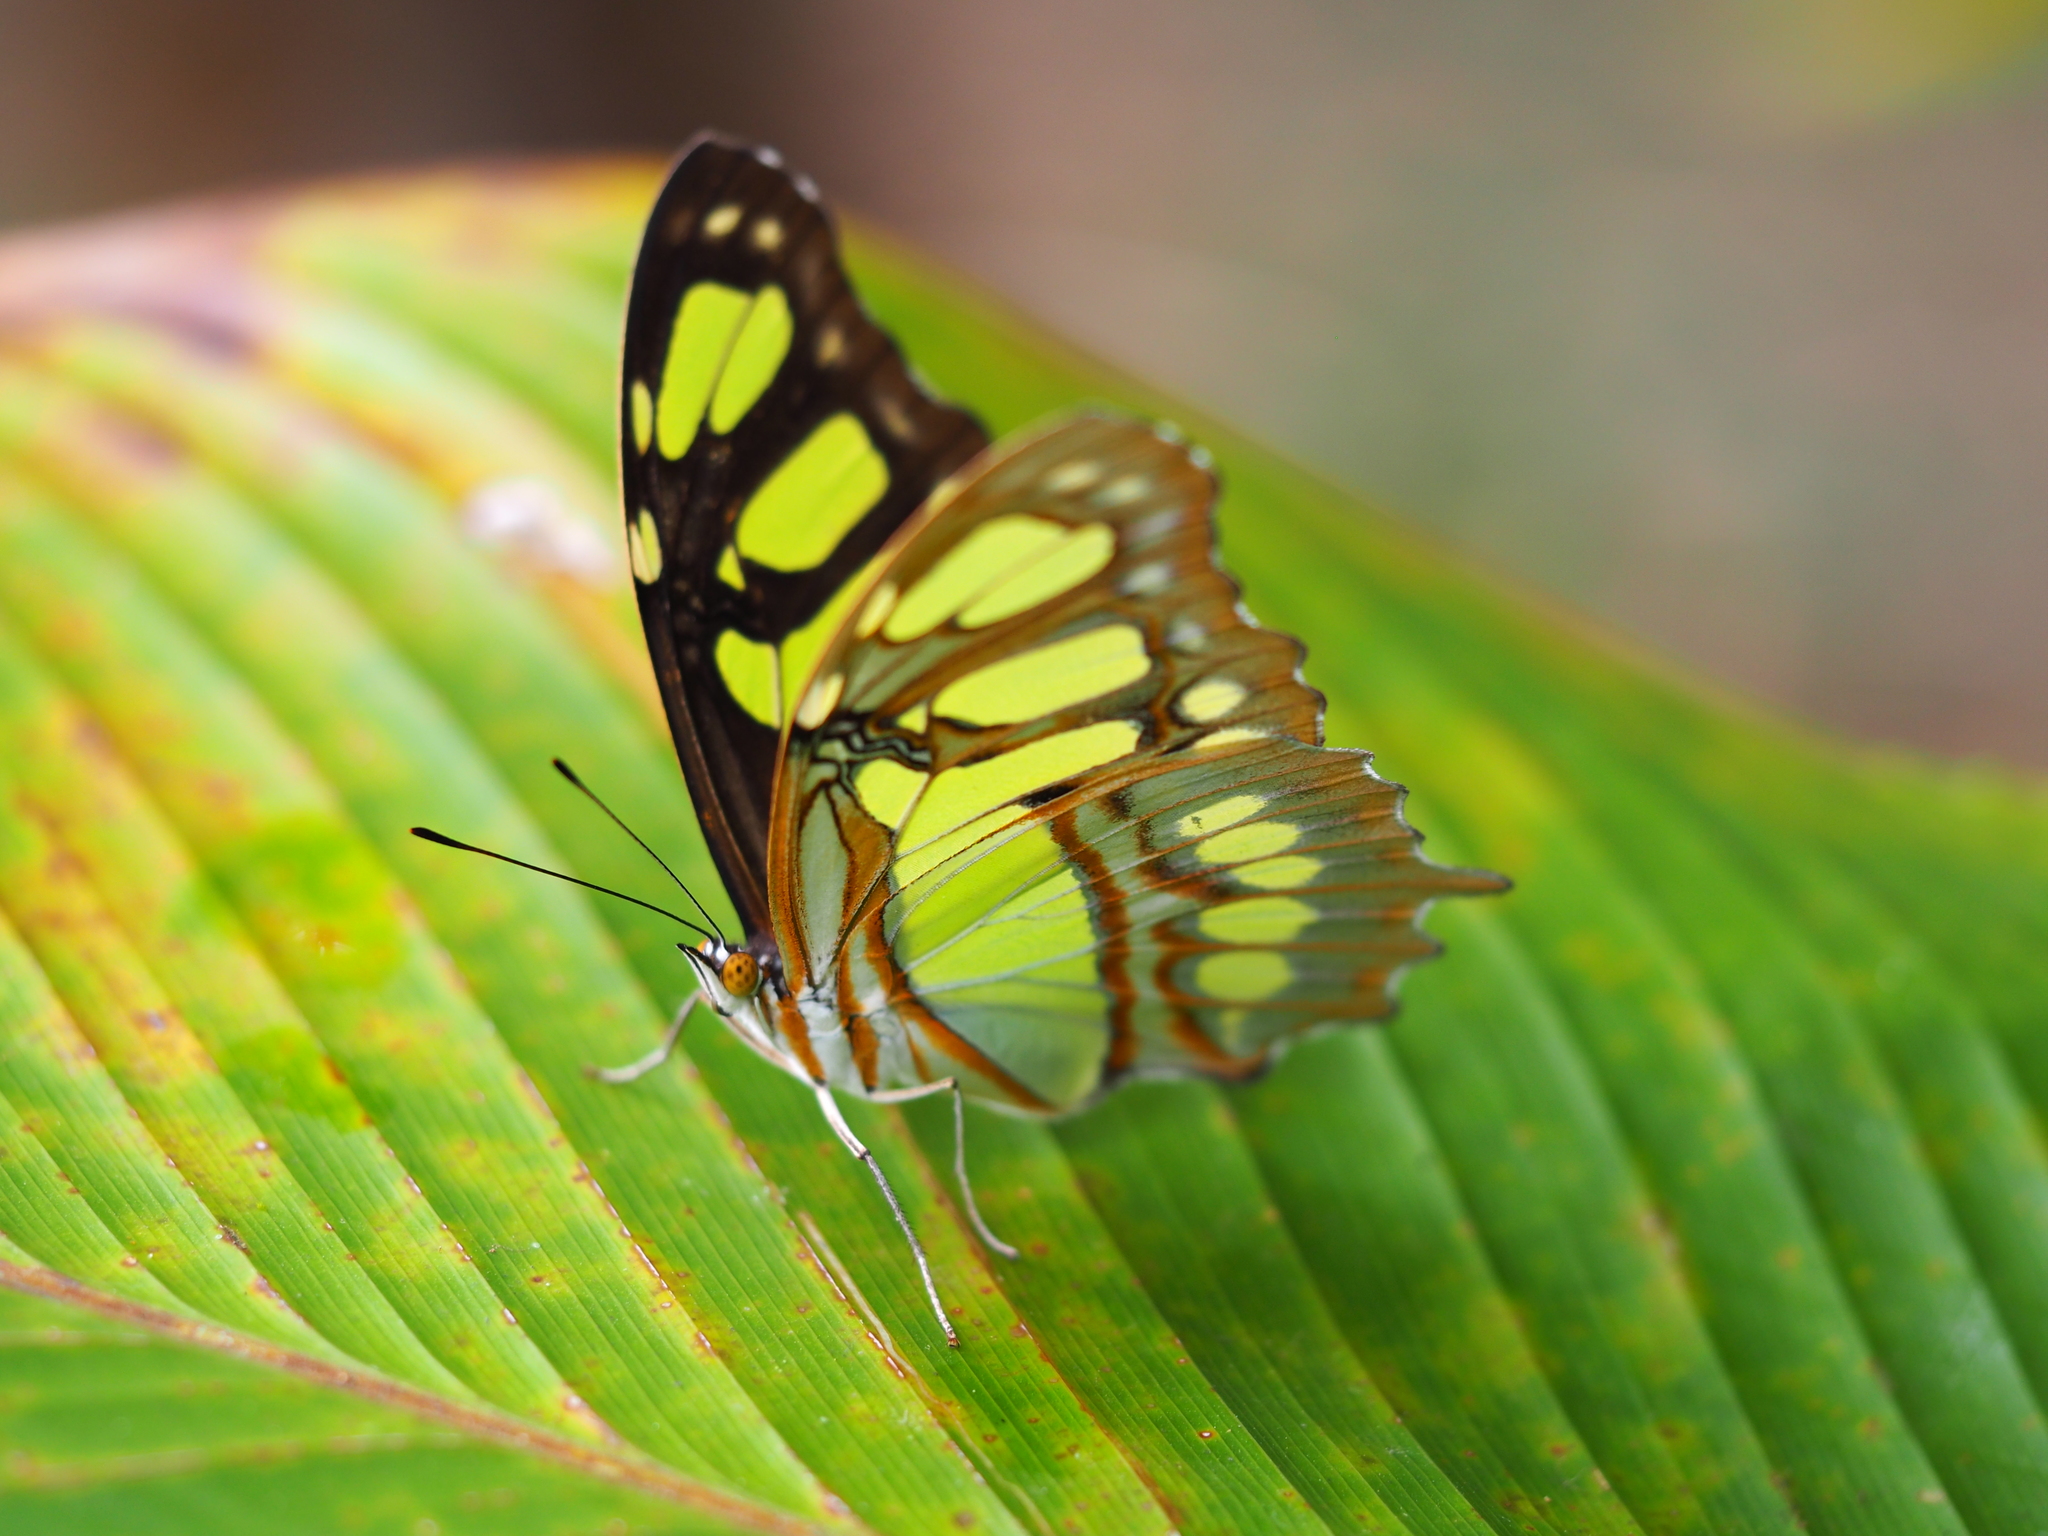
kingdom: Animalia
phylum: Arthropoda
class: Insecta
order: Lepidoptera
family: Nymphalidae
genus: Siproeta
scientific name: Siproeta stelenes
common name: Malachite
